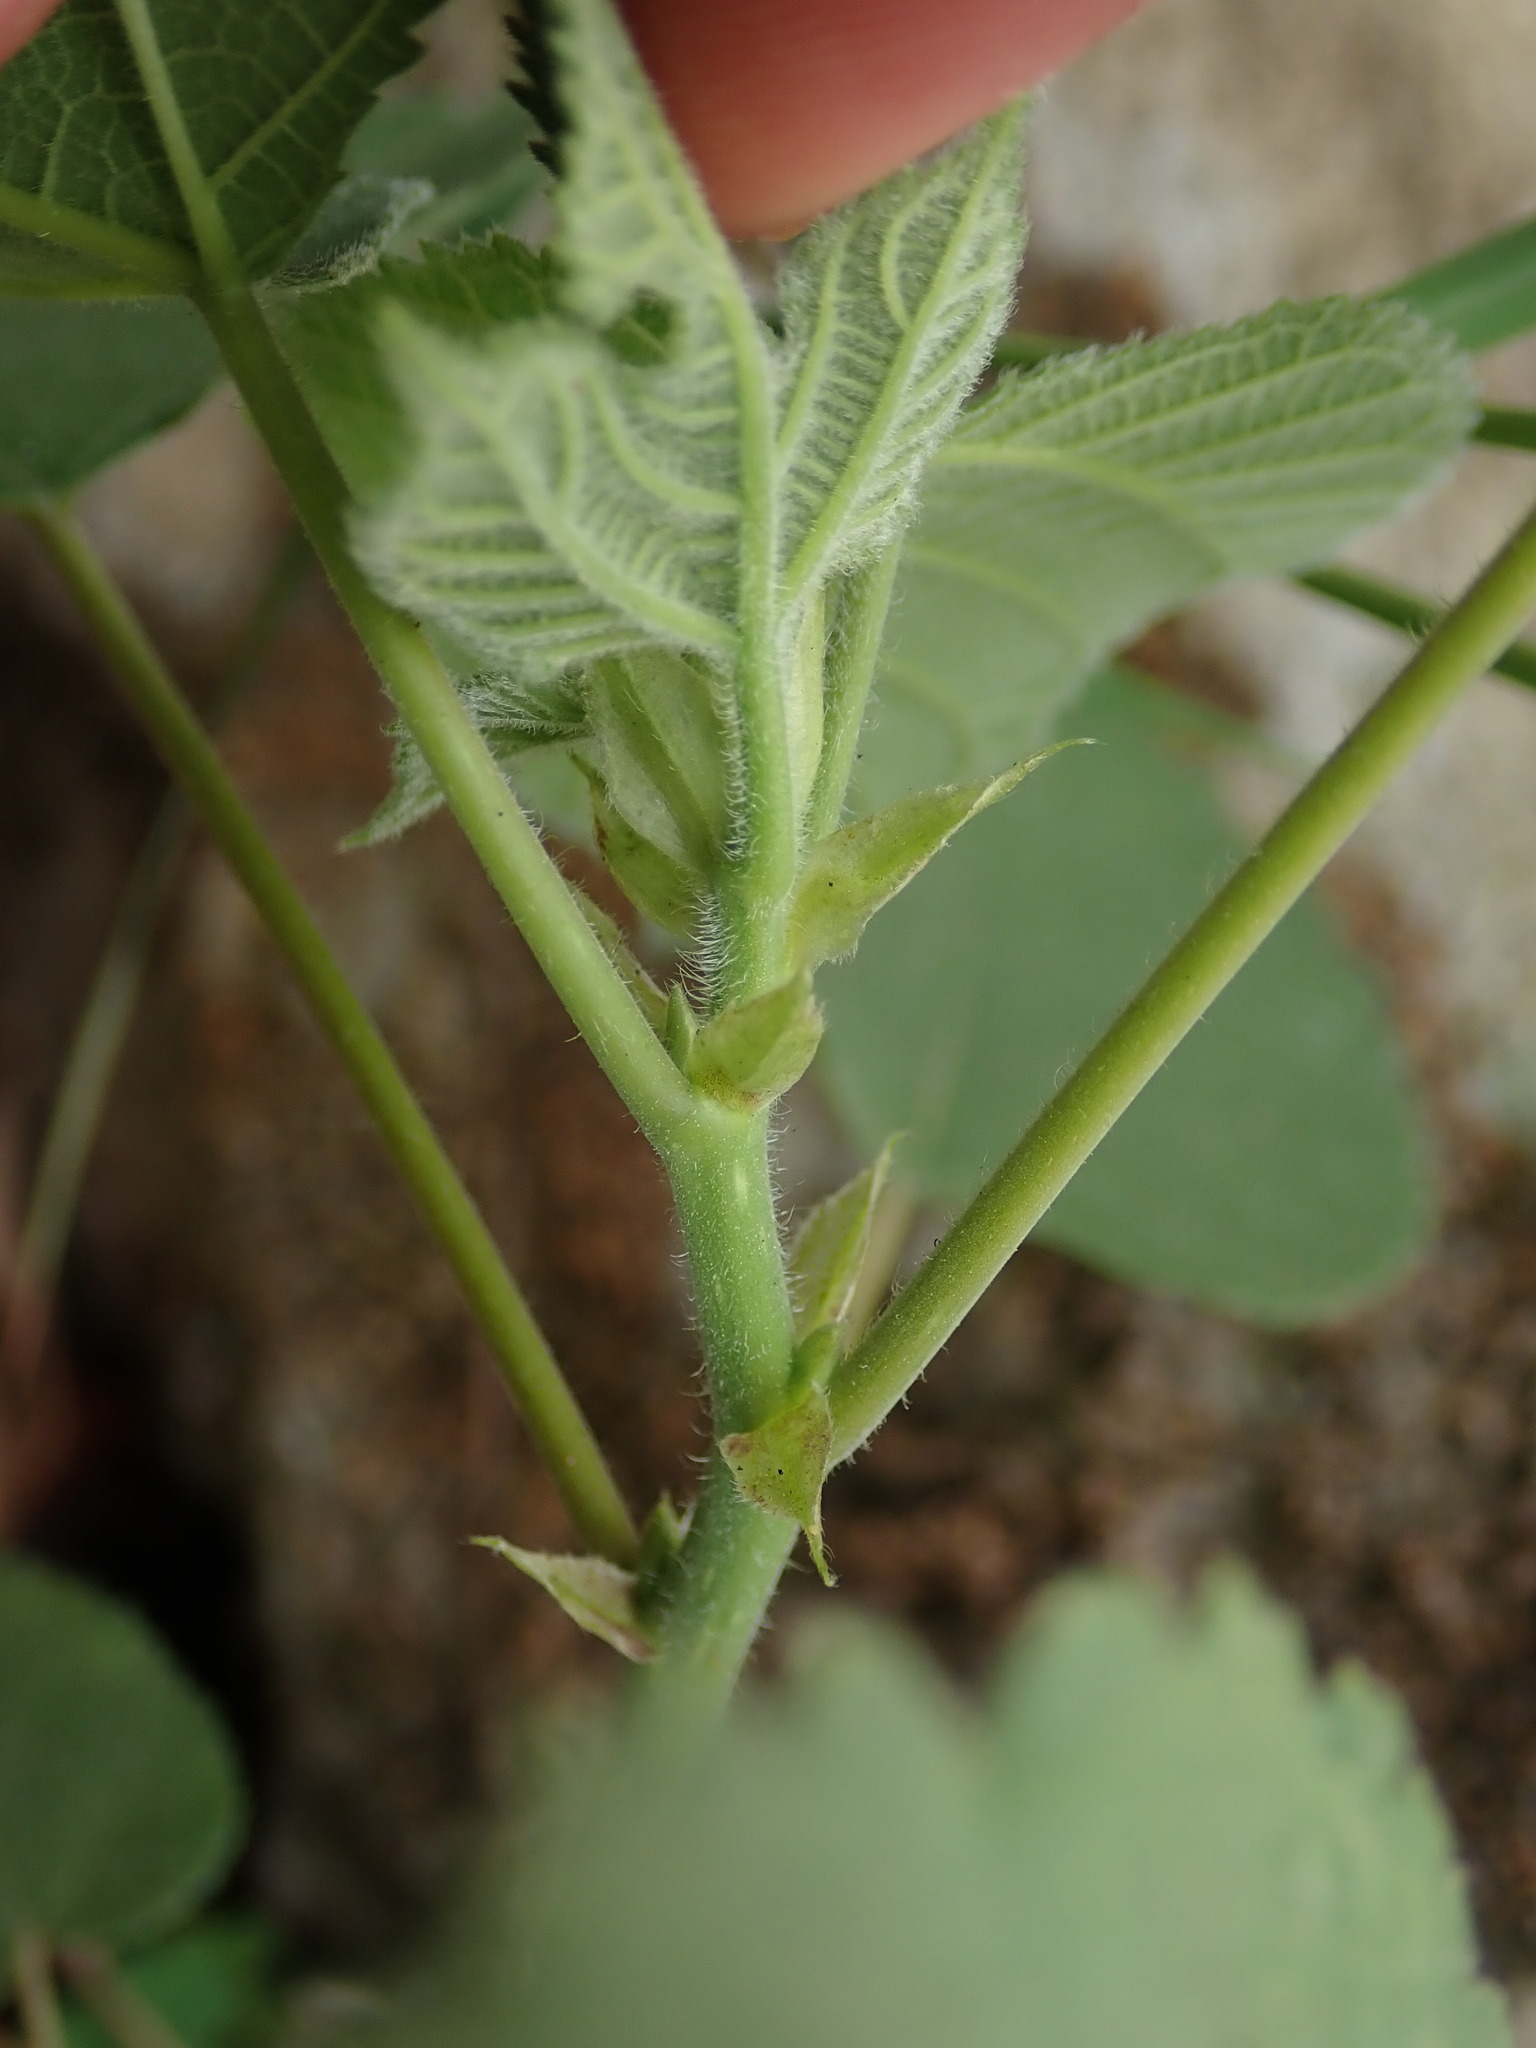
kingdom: Plantae
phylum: Tracheophyta
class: Magnoliopsida
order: Rosales
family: Moraceae
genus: Broussonetia
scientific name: Broussonetia papyrifera
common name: Paper mulberry
